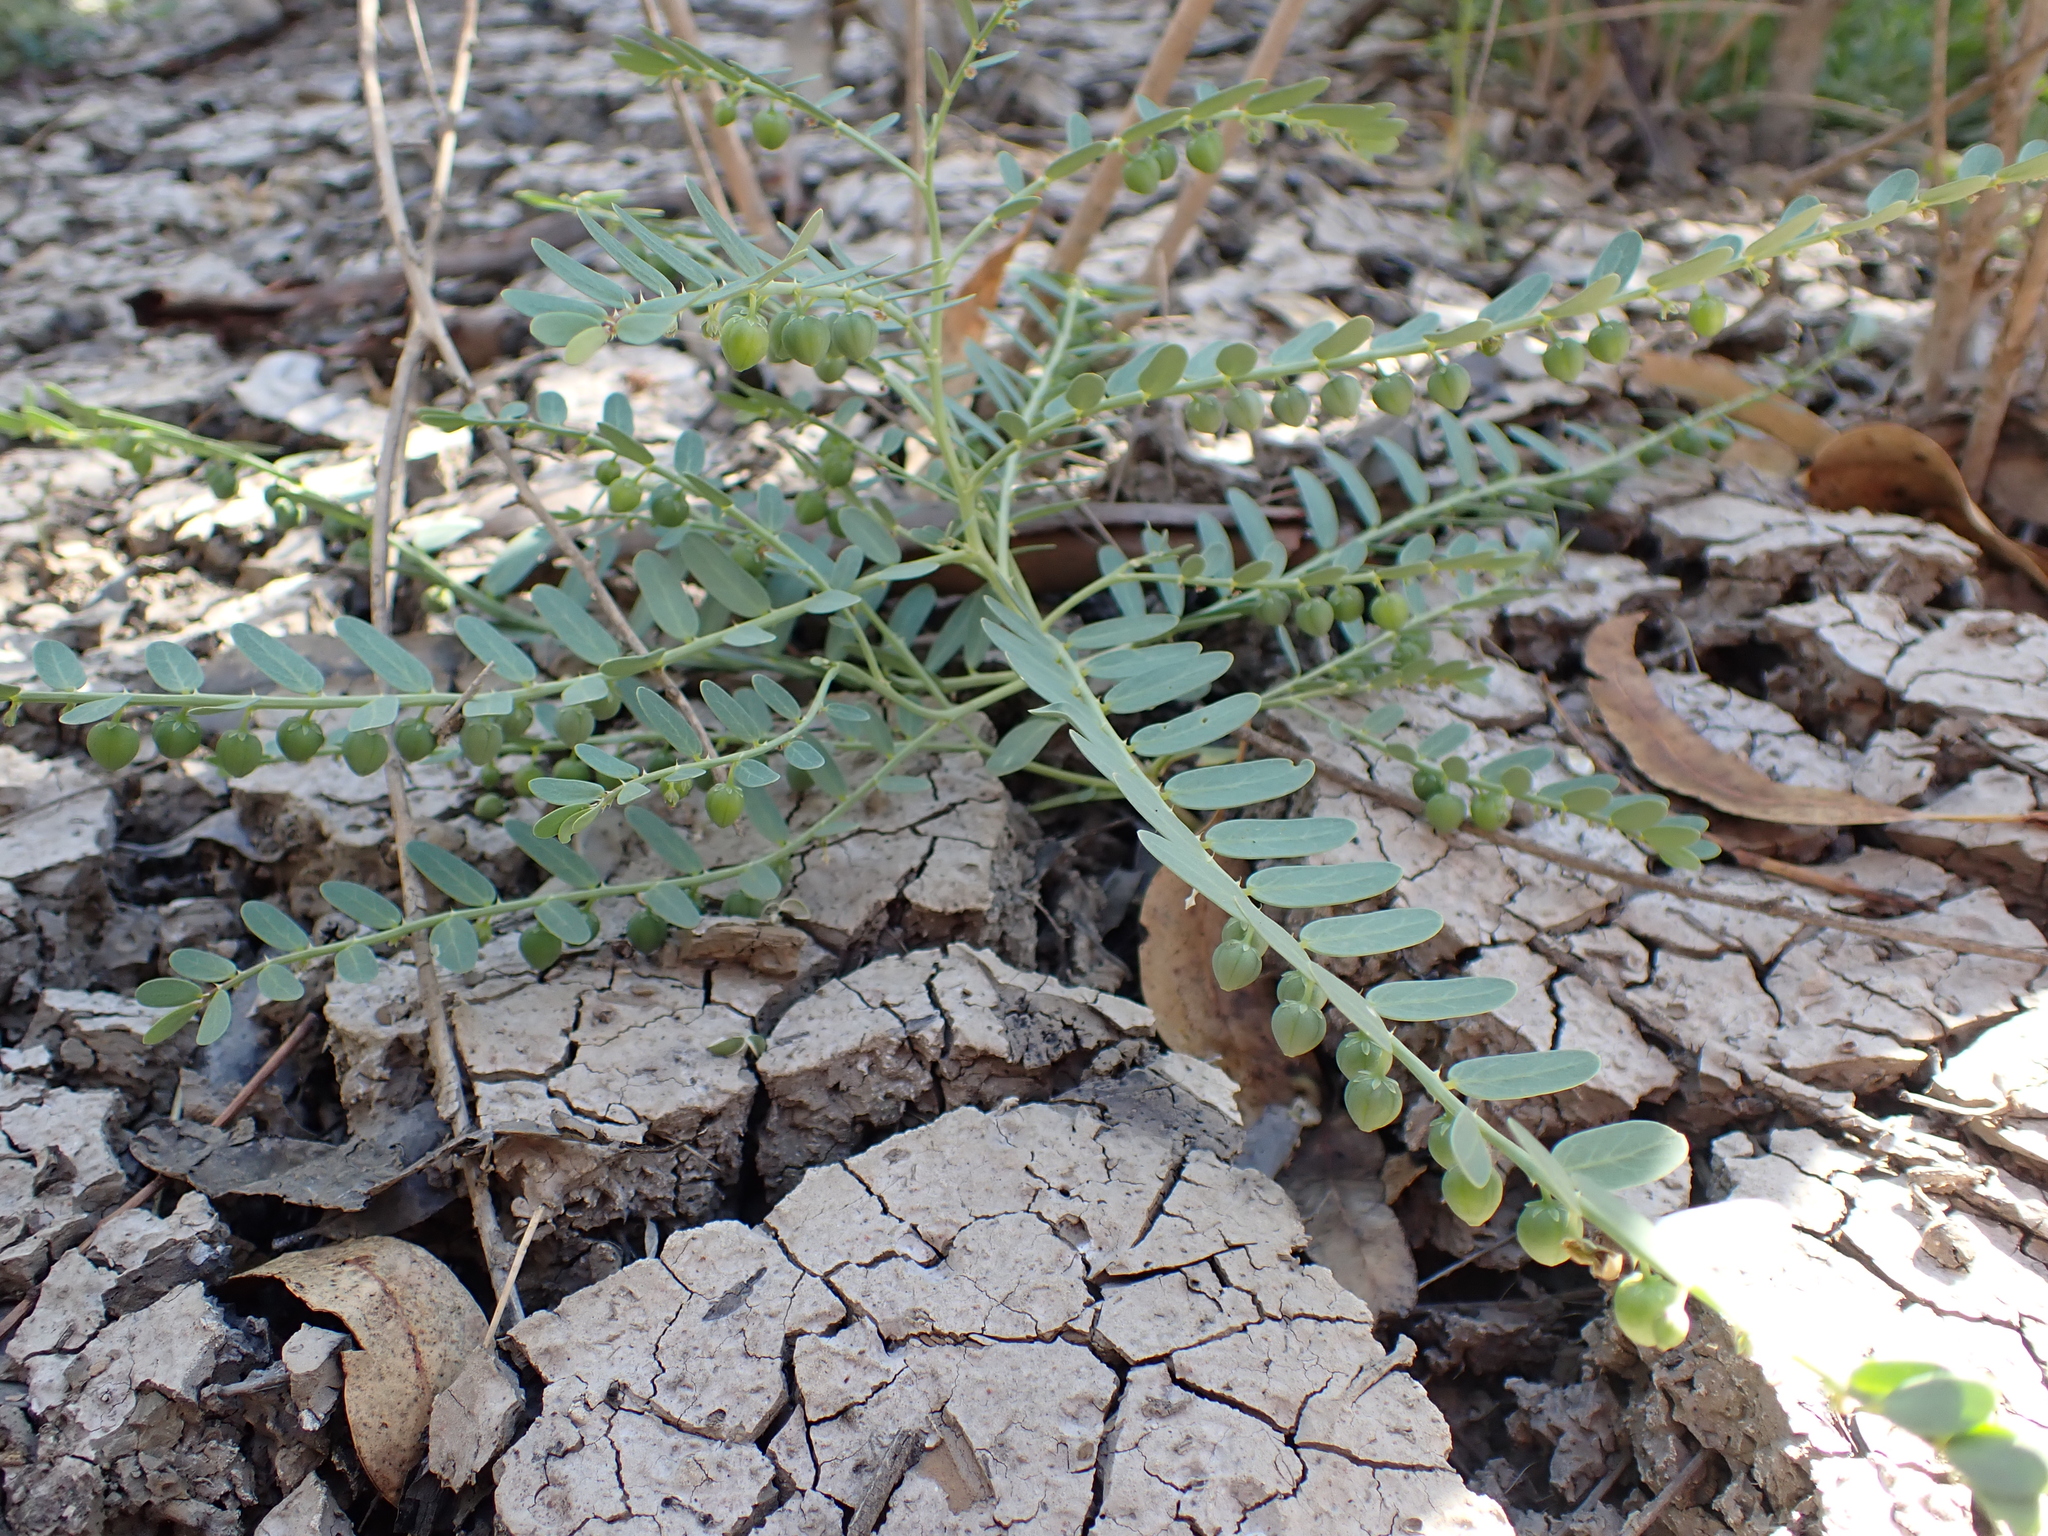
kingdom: Plantae
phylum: Tracheophyta
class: Magnoliopsida
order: Malpighiales
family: Phyllanthaceae
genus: Synostemon
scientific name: Synostemon trachyspermus
